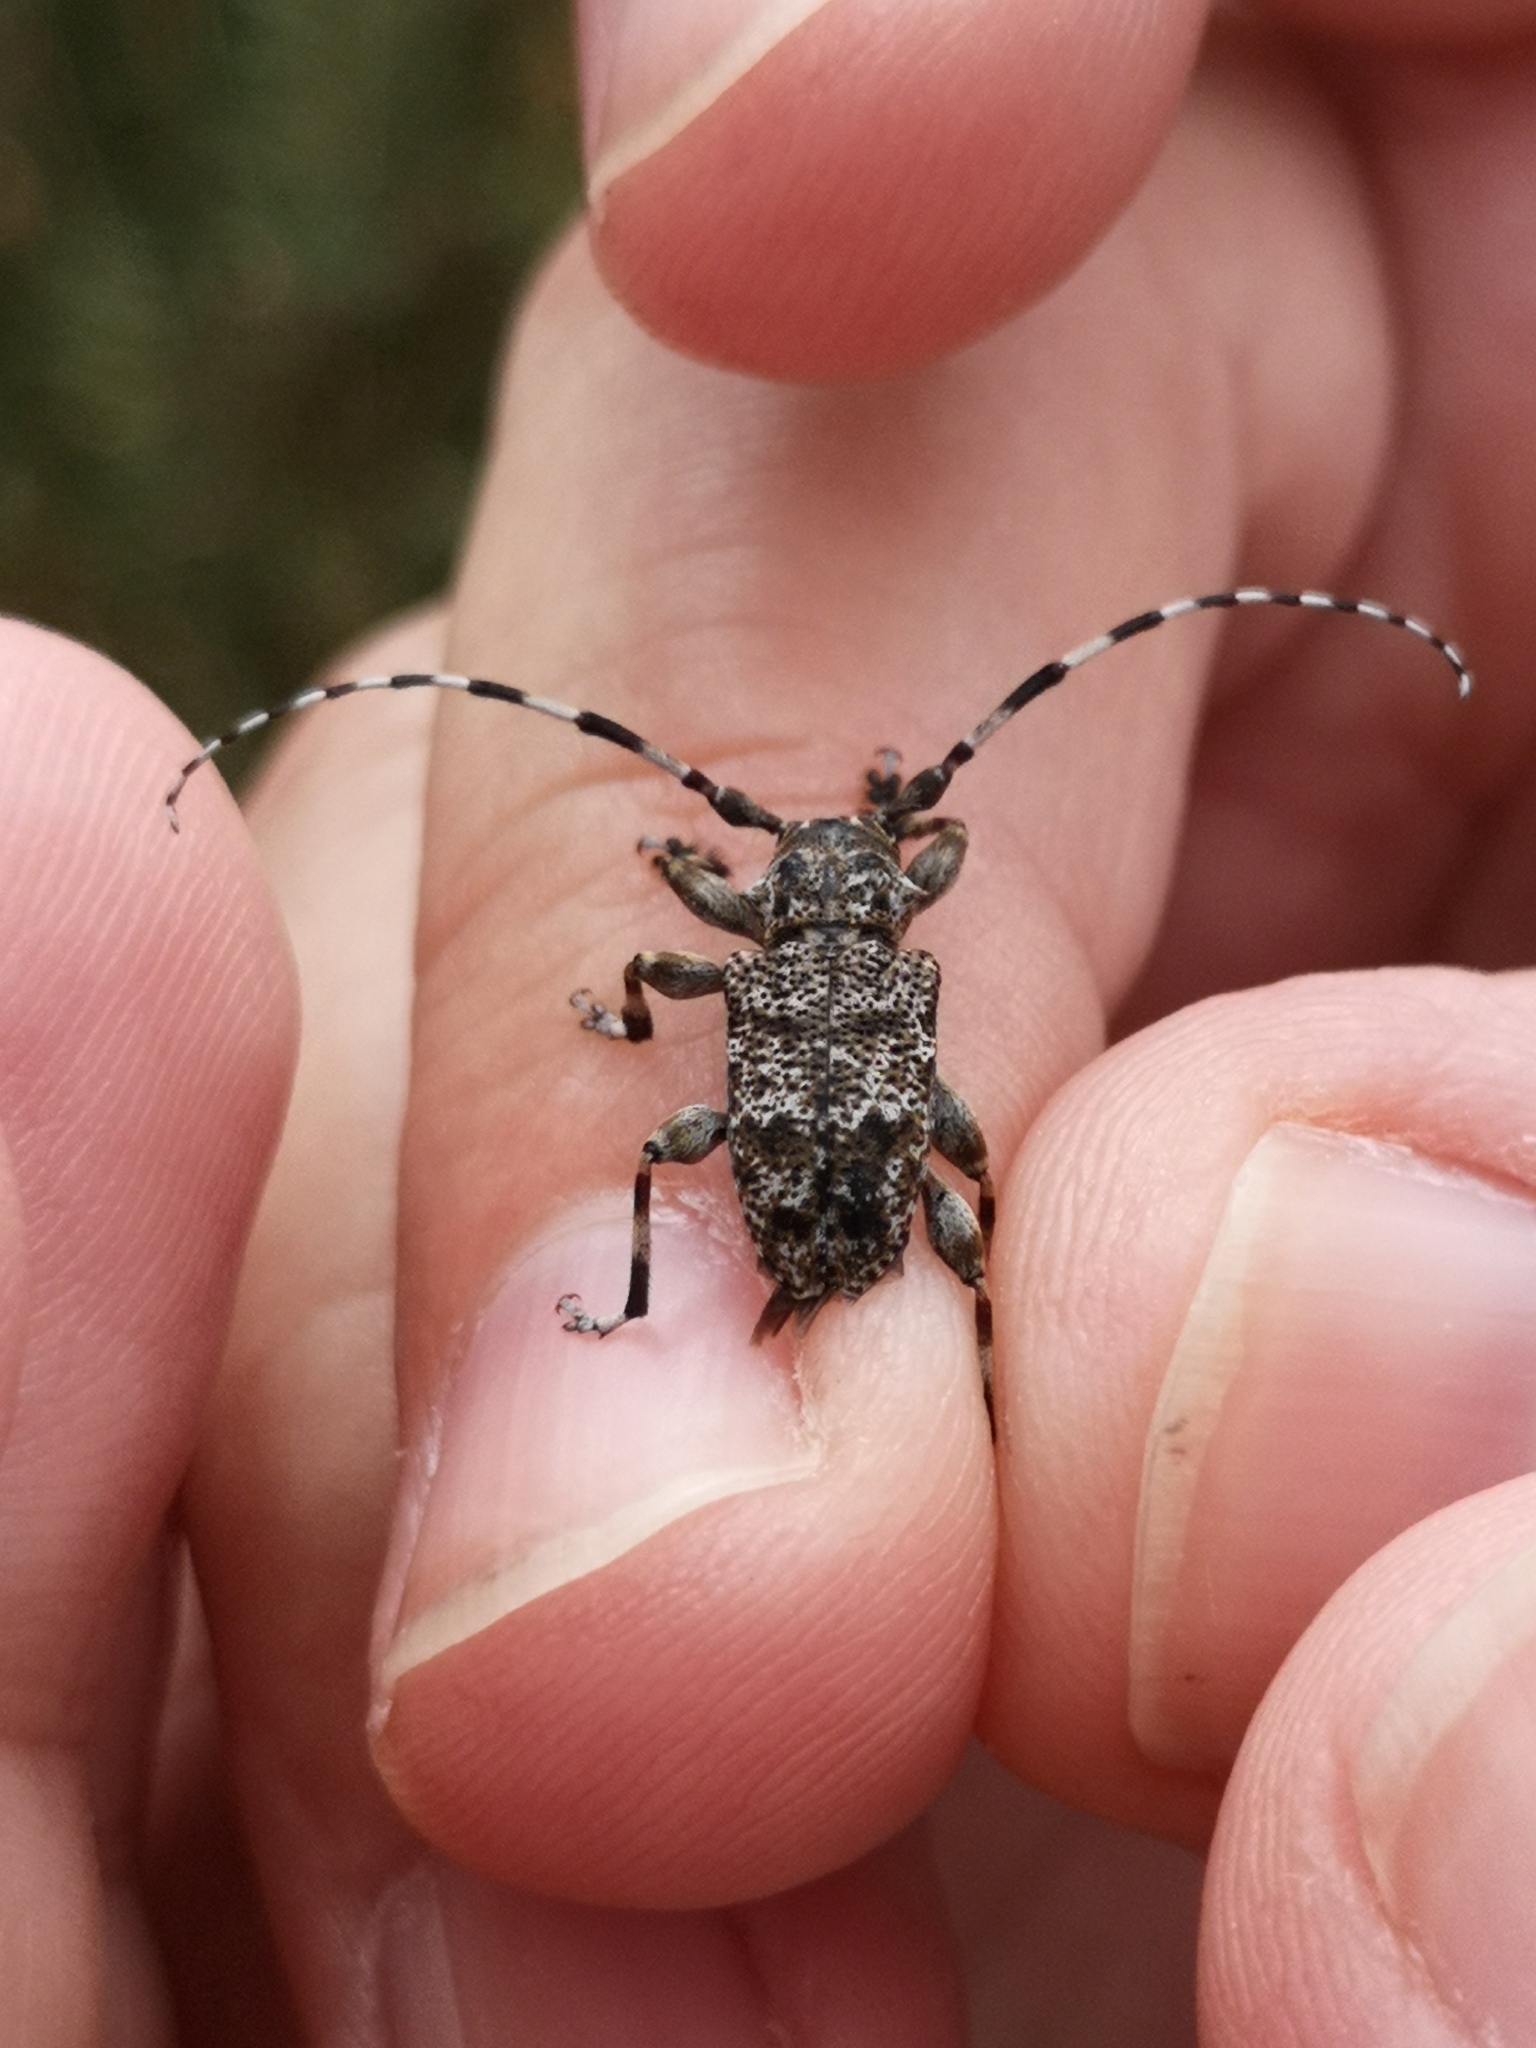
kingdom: Animalia
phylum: Arthropoda
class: Insecta
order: Coleoptera
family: Cerambycidae
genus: Aegomorphus
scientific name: Aegomorphus clavipes
